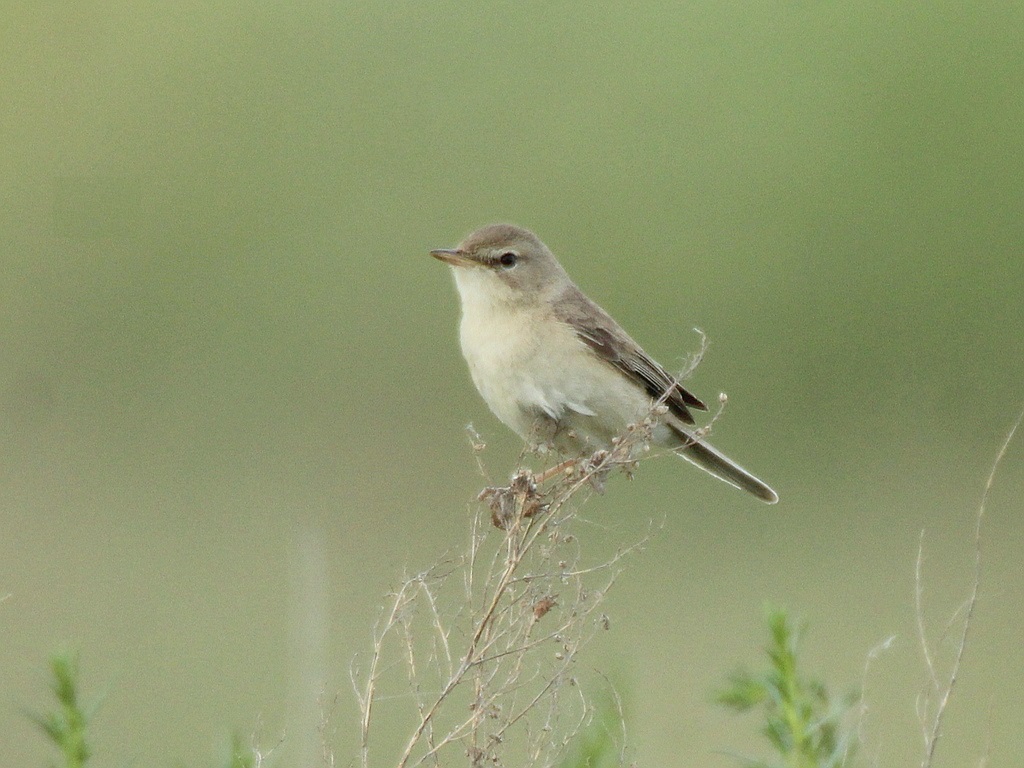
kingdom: Animalia
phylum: Chordata
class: Aves
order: Passeriformes
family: Acrocephalidae
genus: Iduna
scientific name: Iduna caligata
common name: Booted warbler
